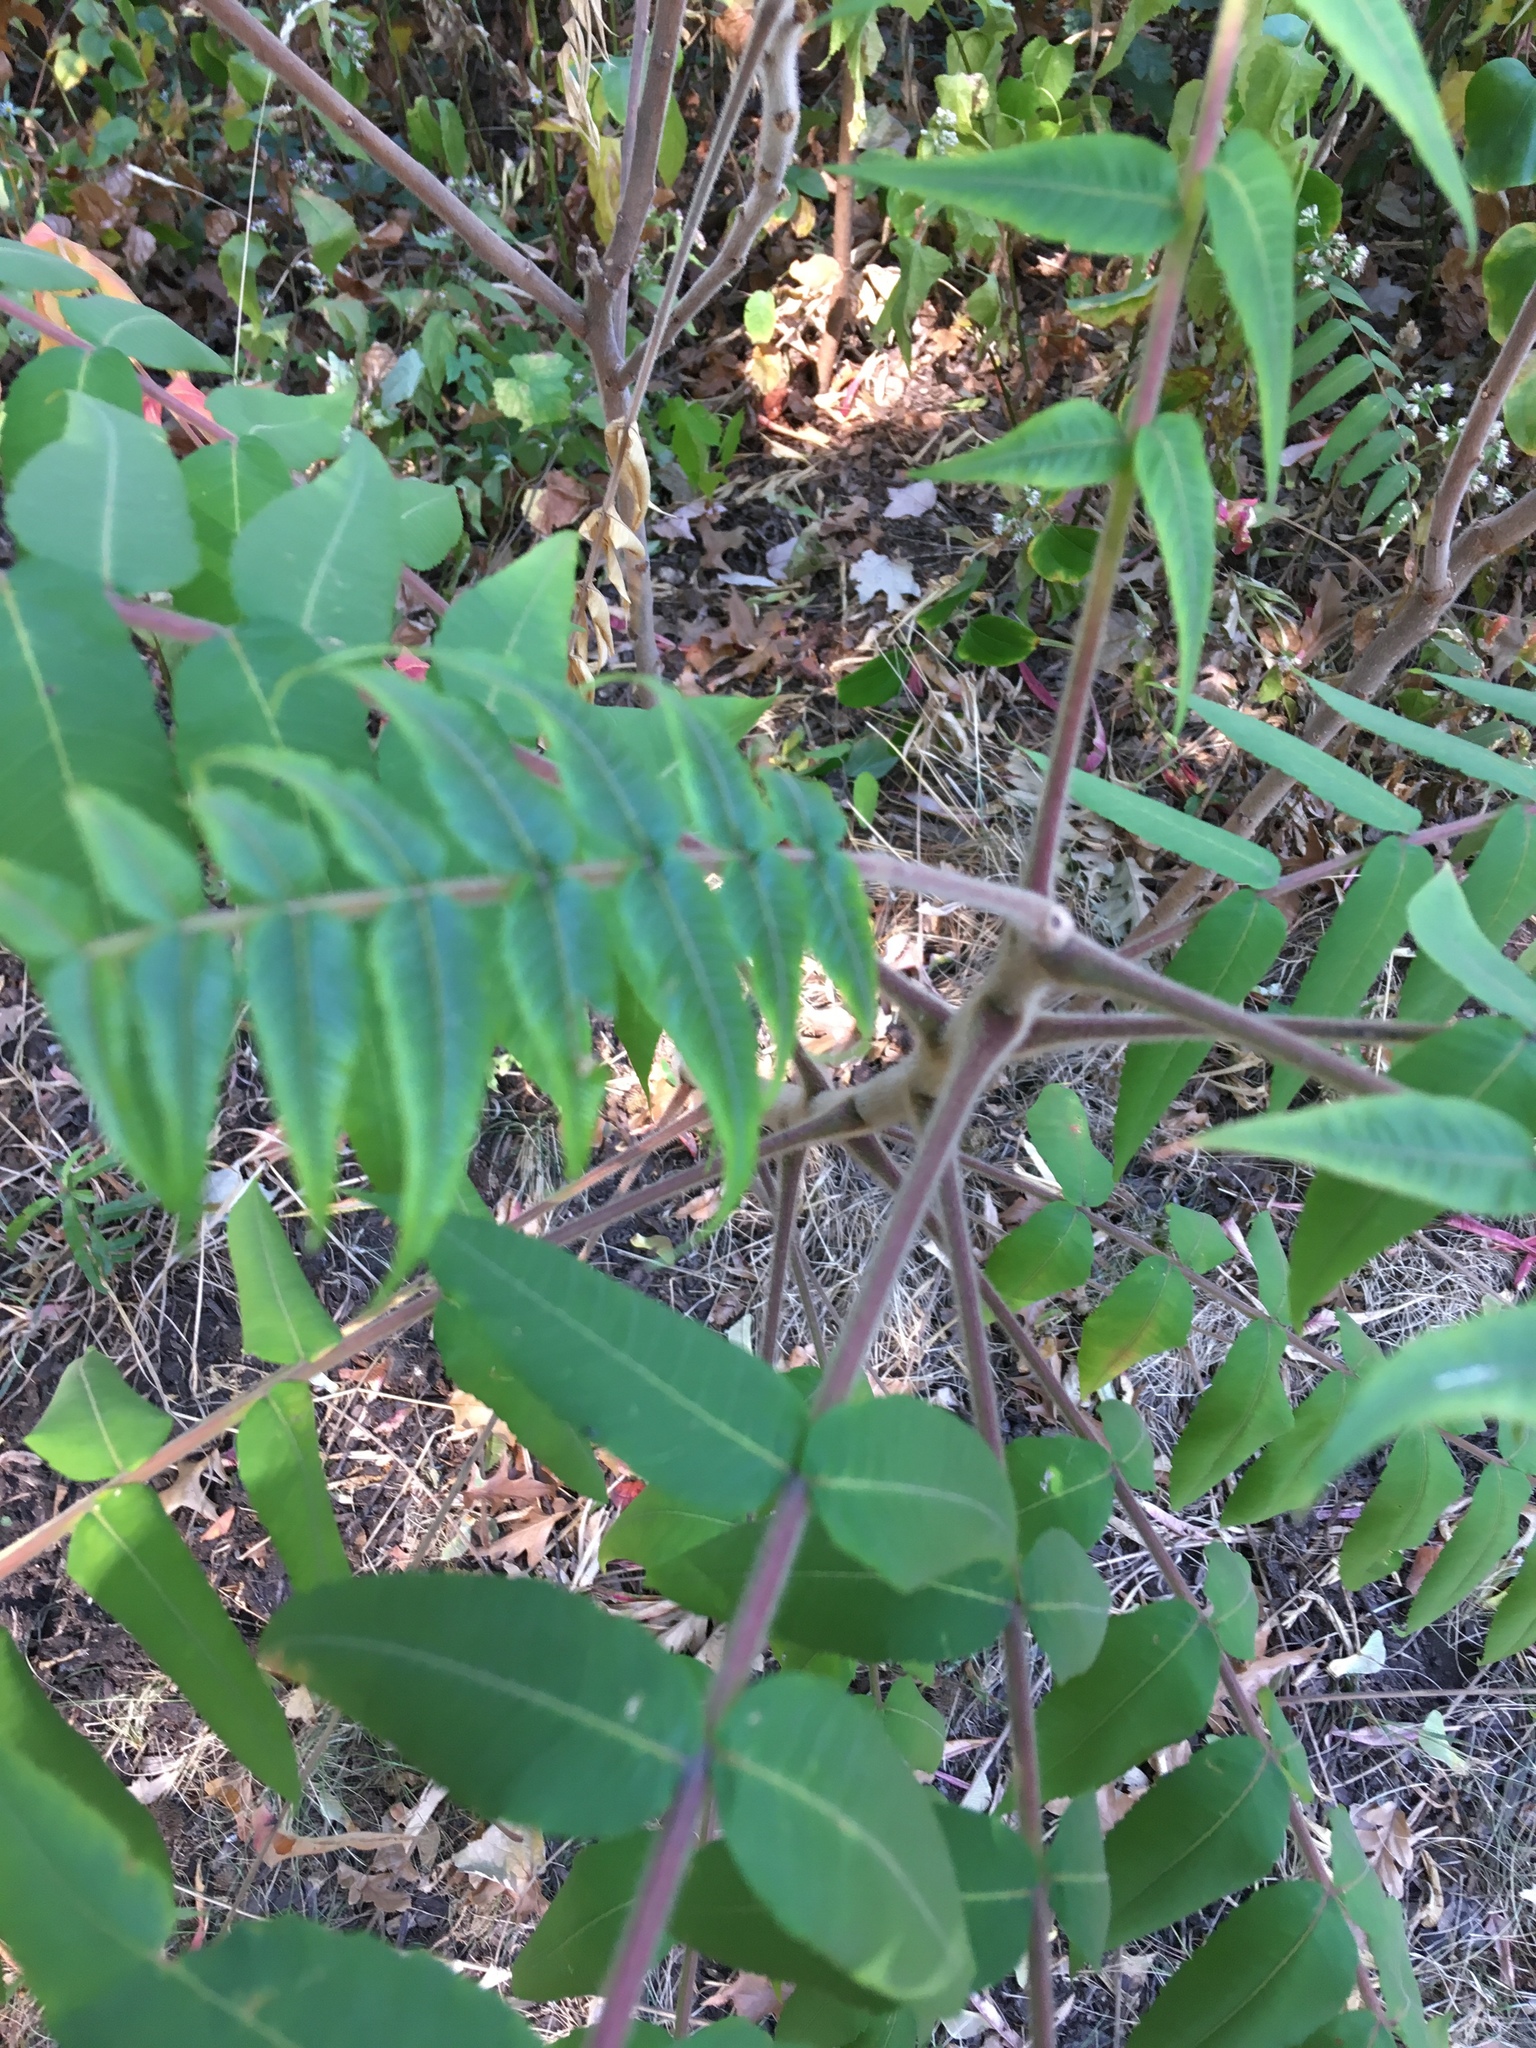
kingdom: Plantae
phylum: Tracheophyta
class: Magnoliopsida
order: Sapindales
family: Anacardiaceae
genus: Rhus
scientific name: Rhus typhina
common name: Staghorn sumac
